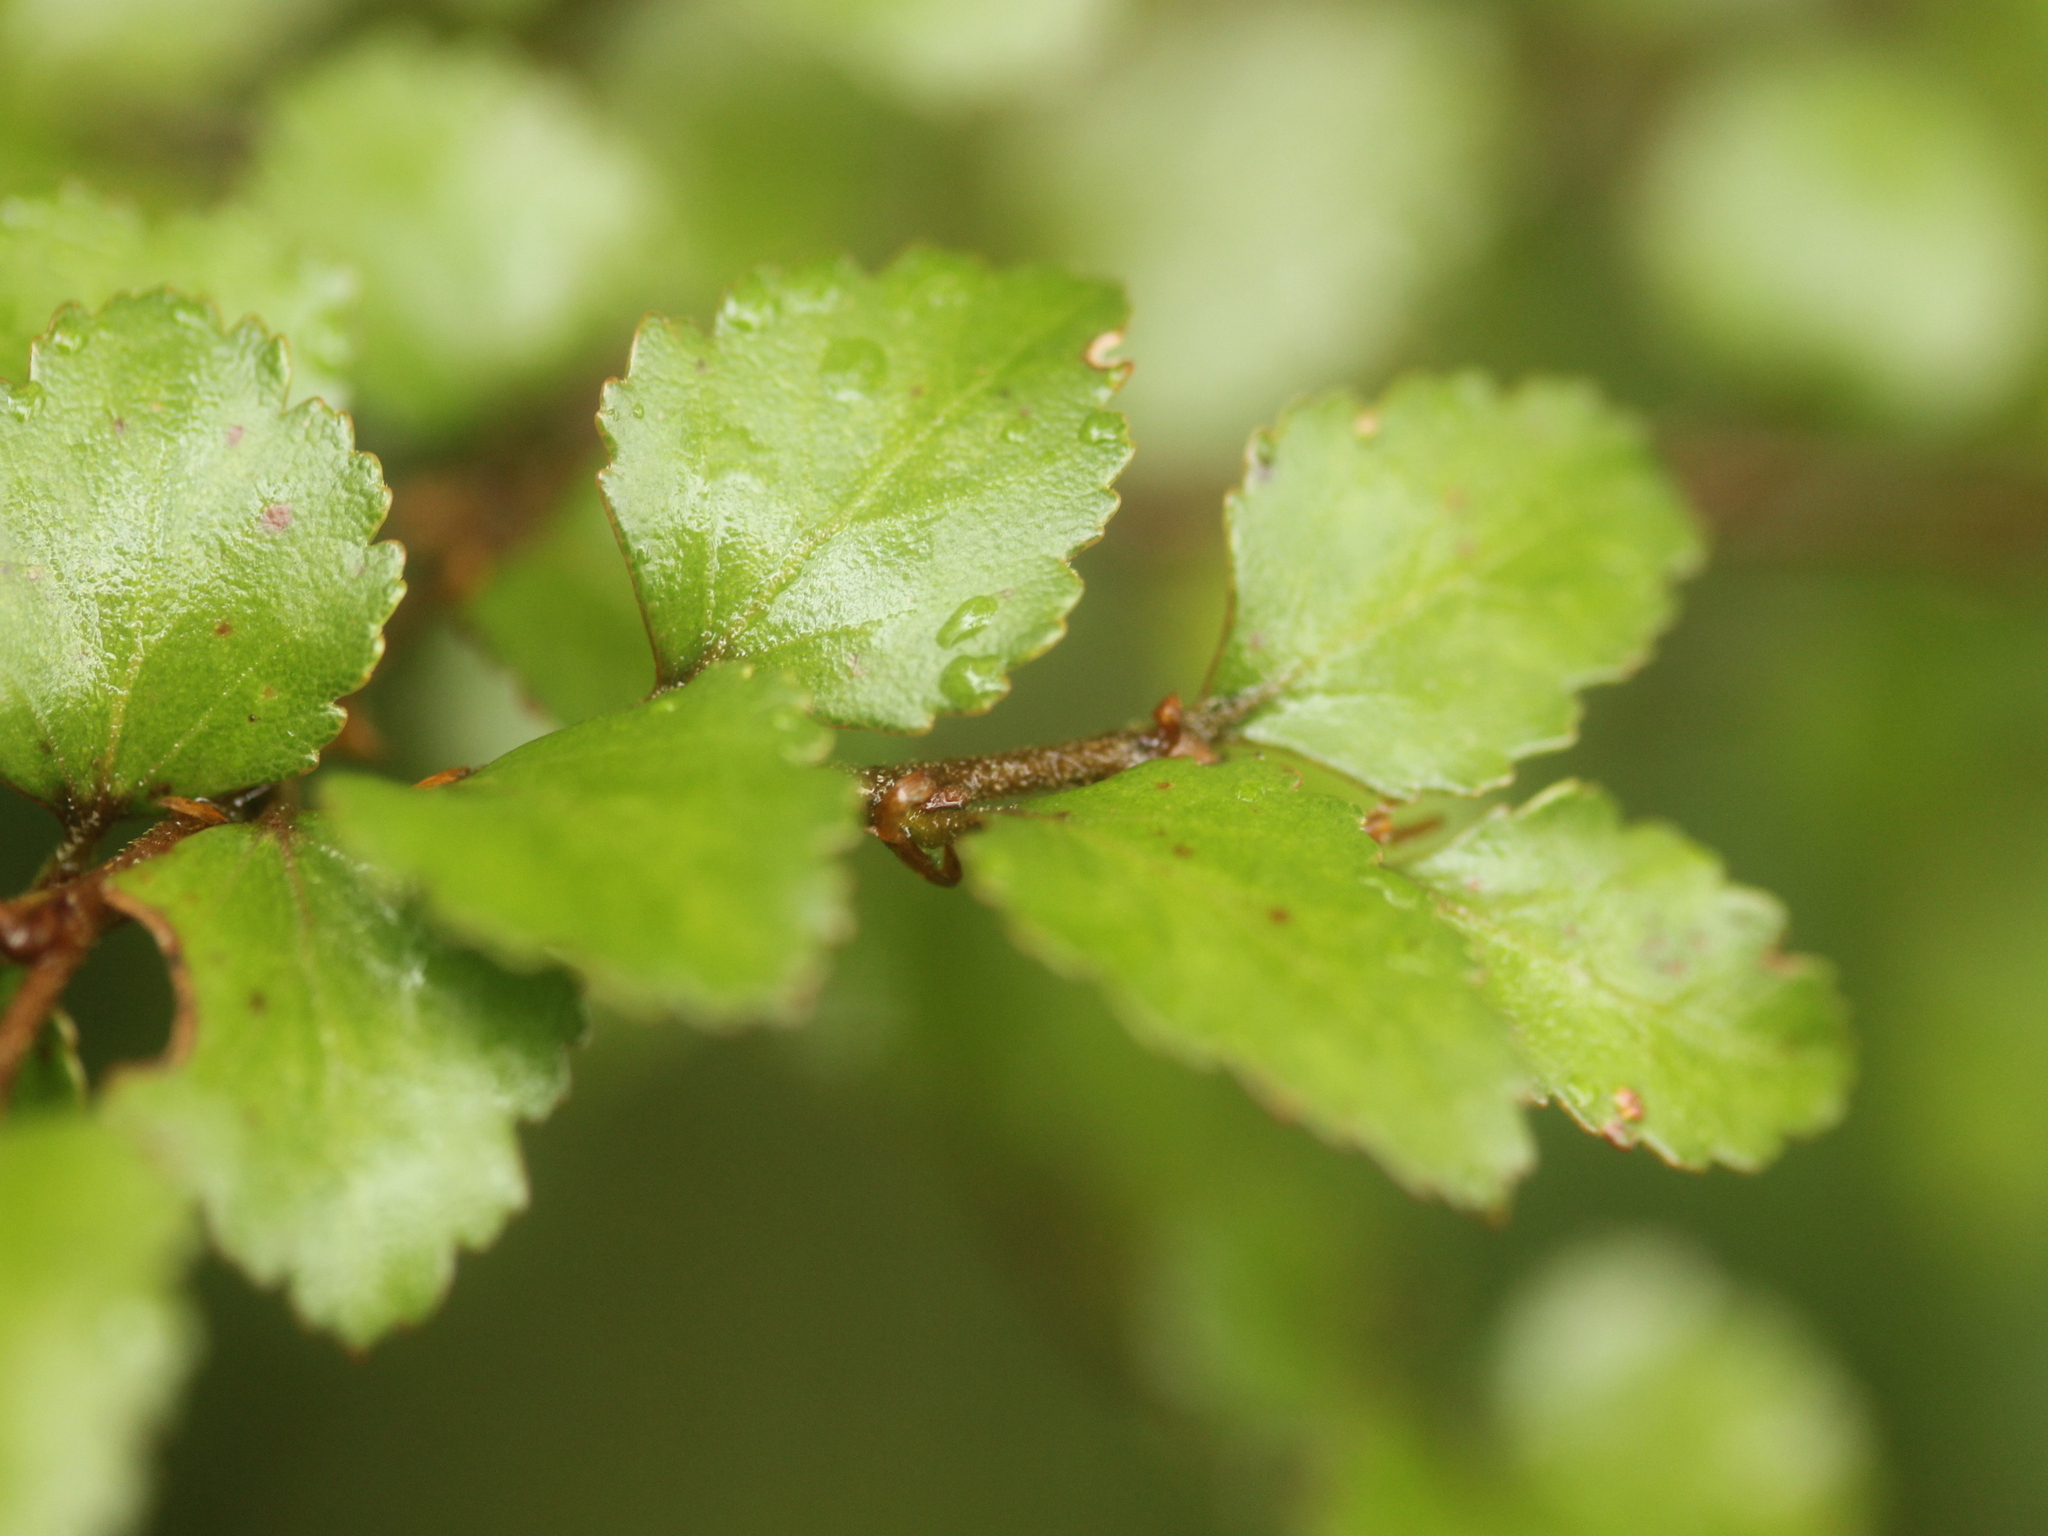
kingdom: Plantae
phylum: Tracheophyta
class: Magnoliopsida
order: Fagales
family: Nothofagaceae
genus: Nothofagus
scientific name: Nothofagus menziesii
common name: Silver beech
